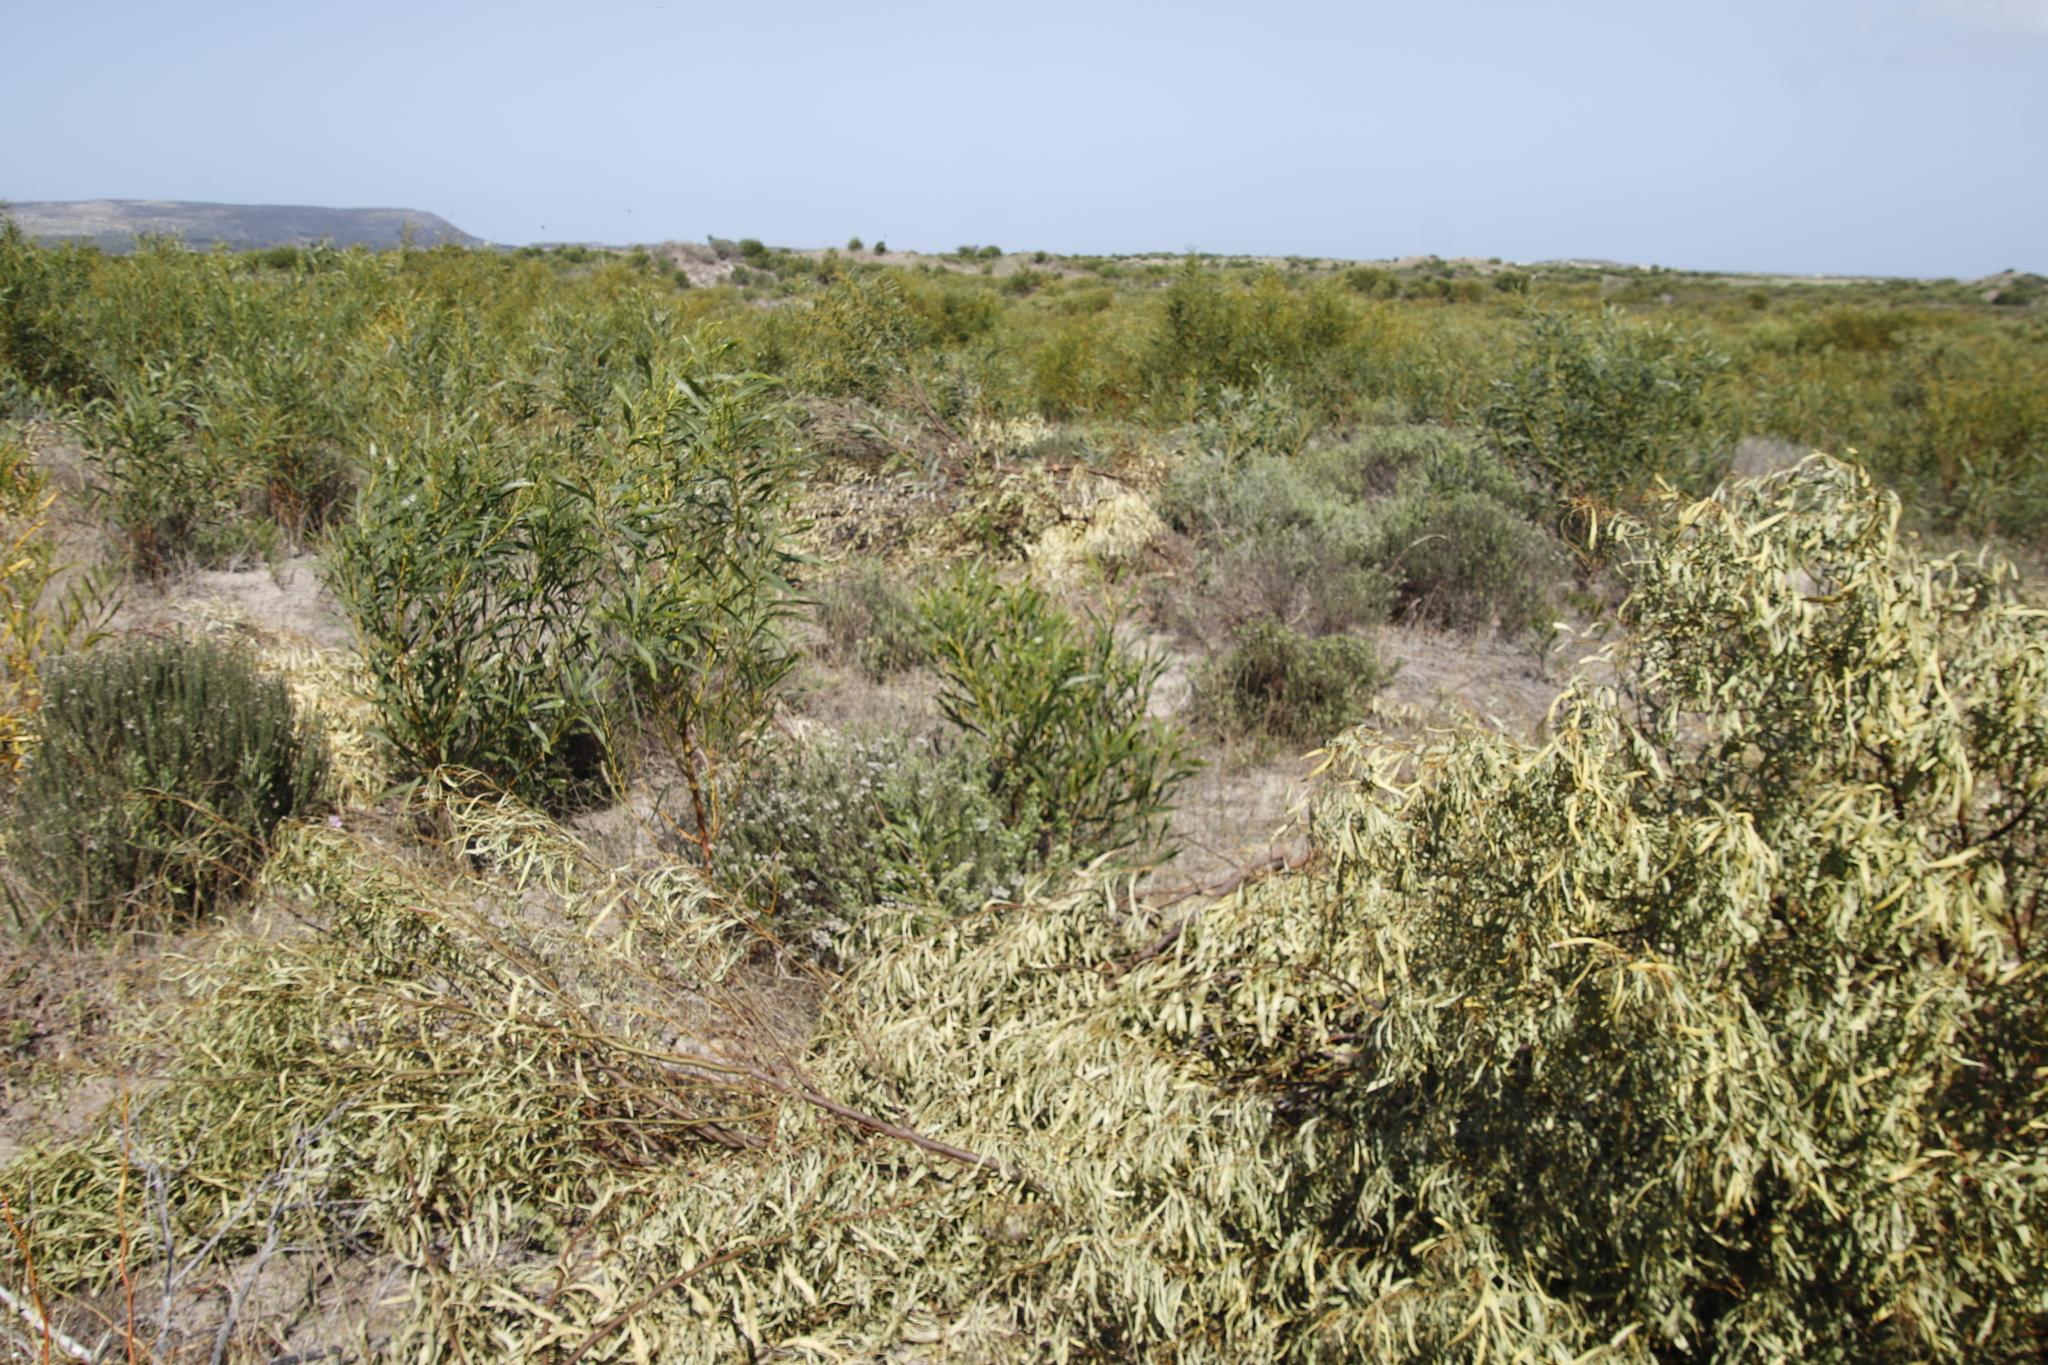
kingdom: Plantae
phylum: Tracheophyta
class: Magnoliopsida
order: Fabales
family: Fabaceae
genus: Acacia
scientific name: Acacia saligna
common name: Orange wattle
